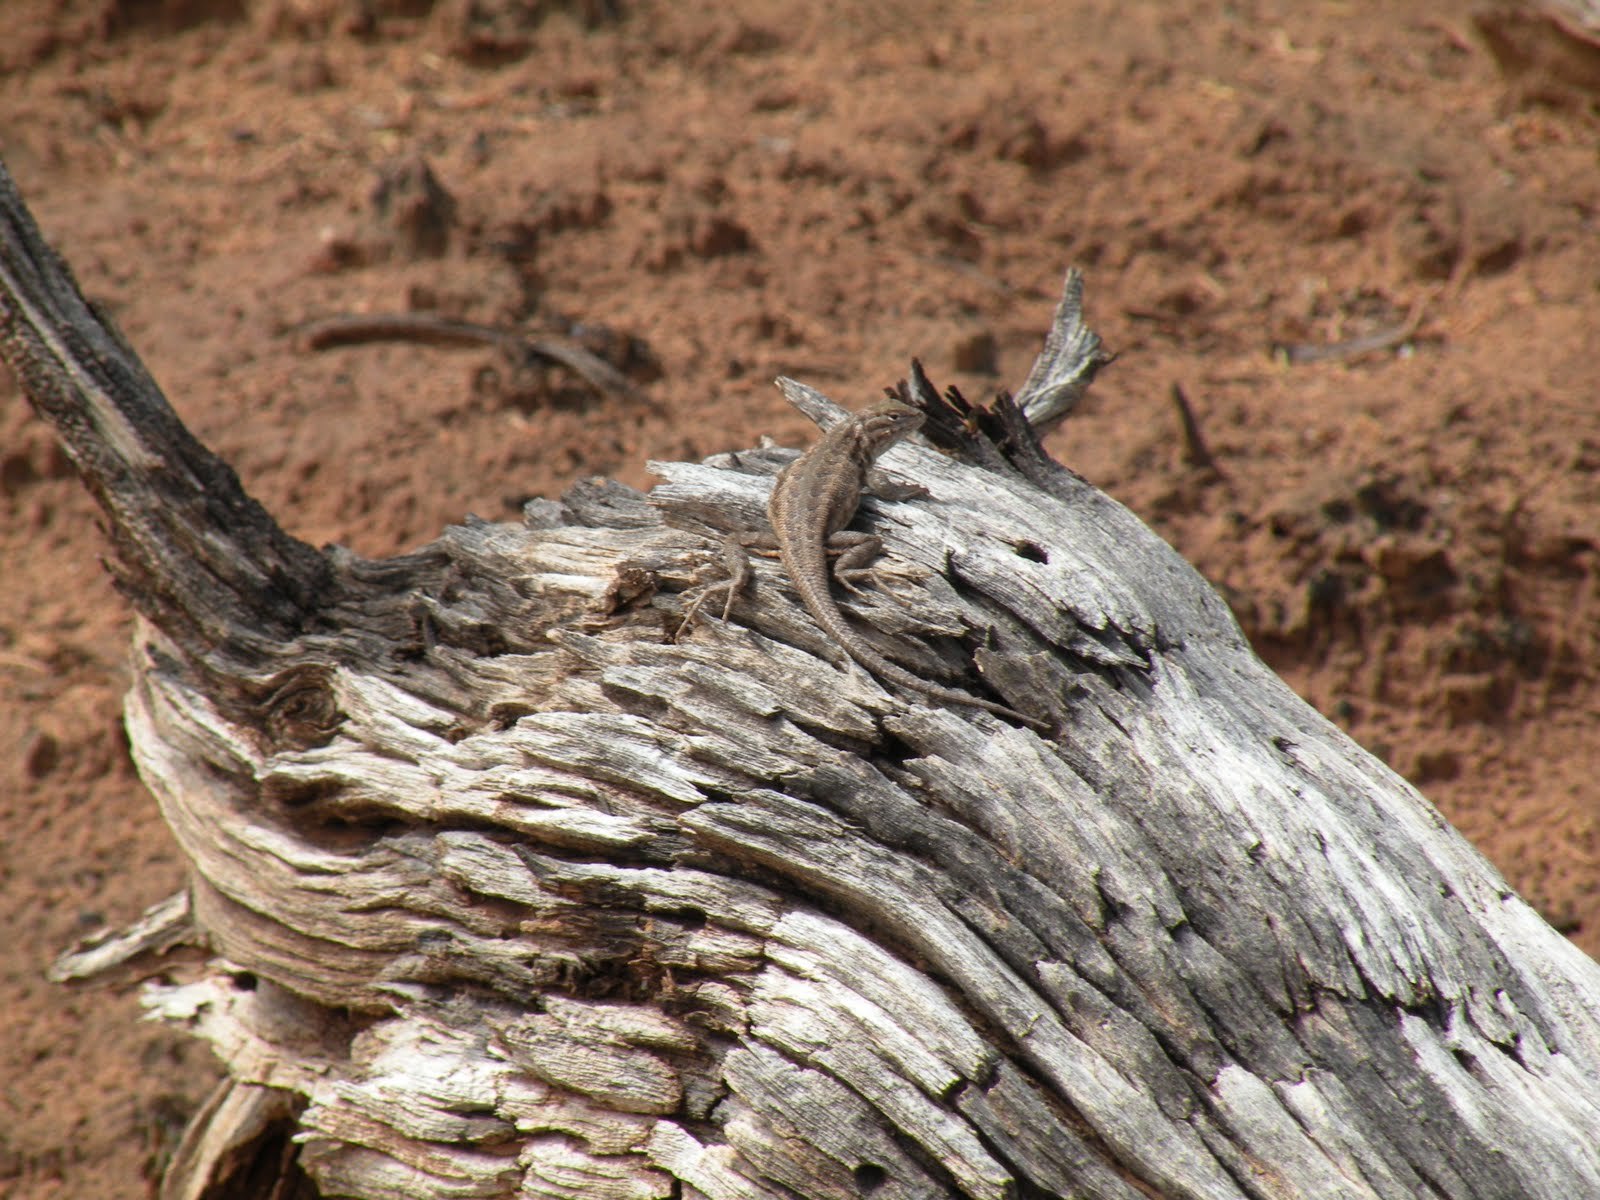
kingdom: Animalia
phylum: Chordata
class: Squamata
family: Phrynosomatidae
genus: Sceloporus
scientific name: Sceloporus graciosus
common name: Sagebrush lizard
